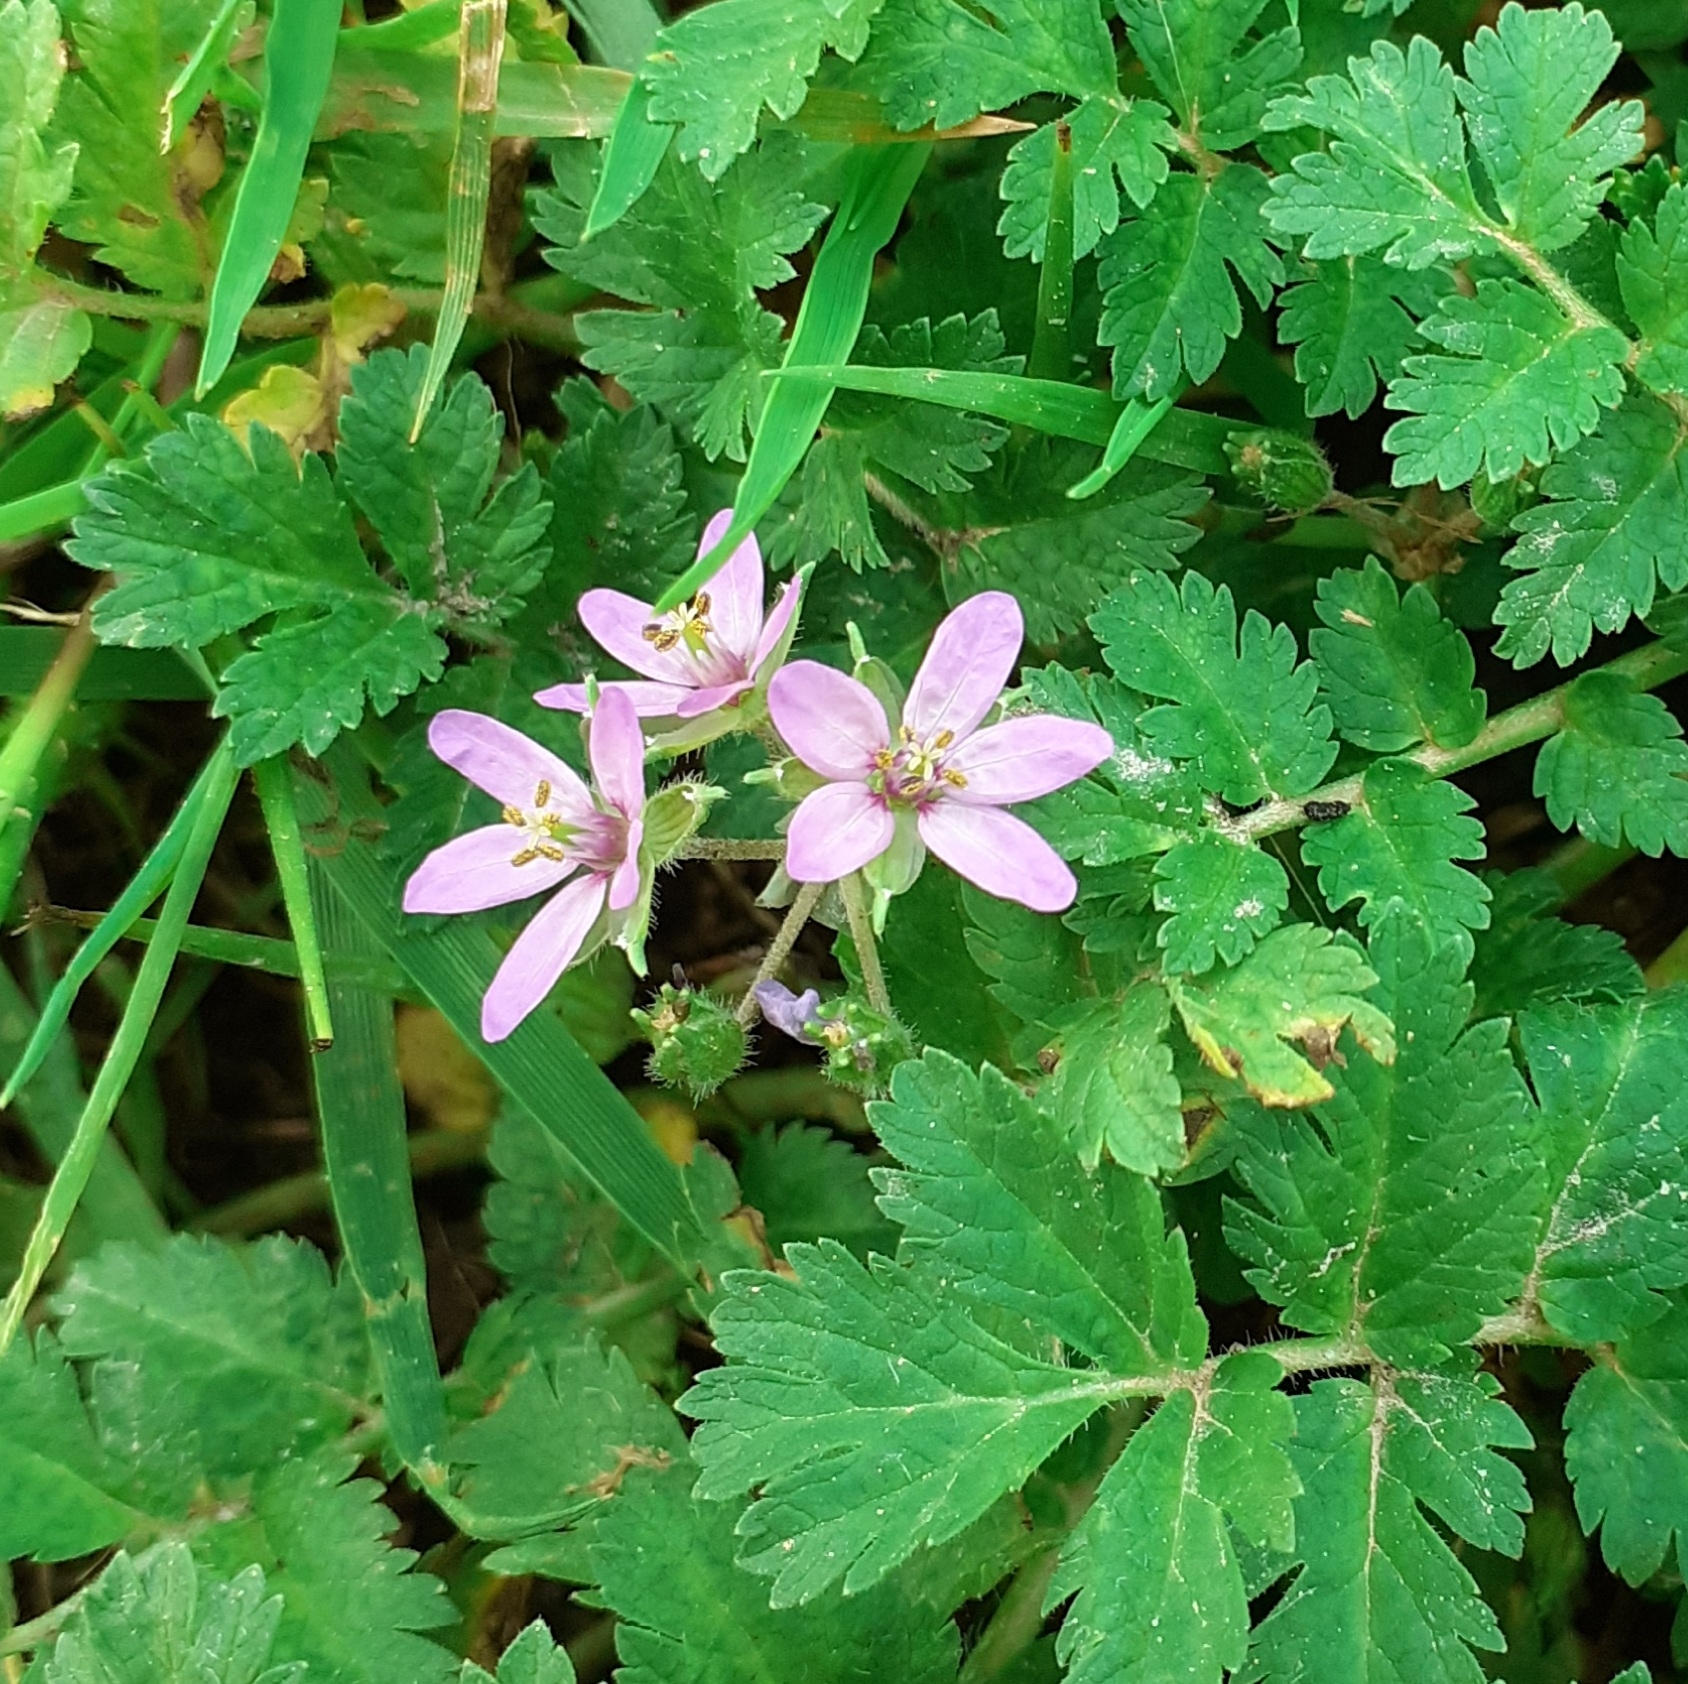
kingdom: Plantae
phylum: Tracheophyta
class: Magnoliopsida
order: Geraniales
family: Geraniaceae
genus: Erodium
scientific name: Erodium moschatum
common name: Musk stork's-bill
